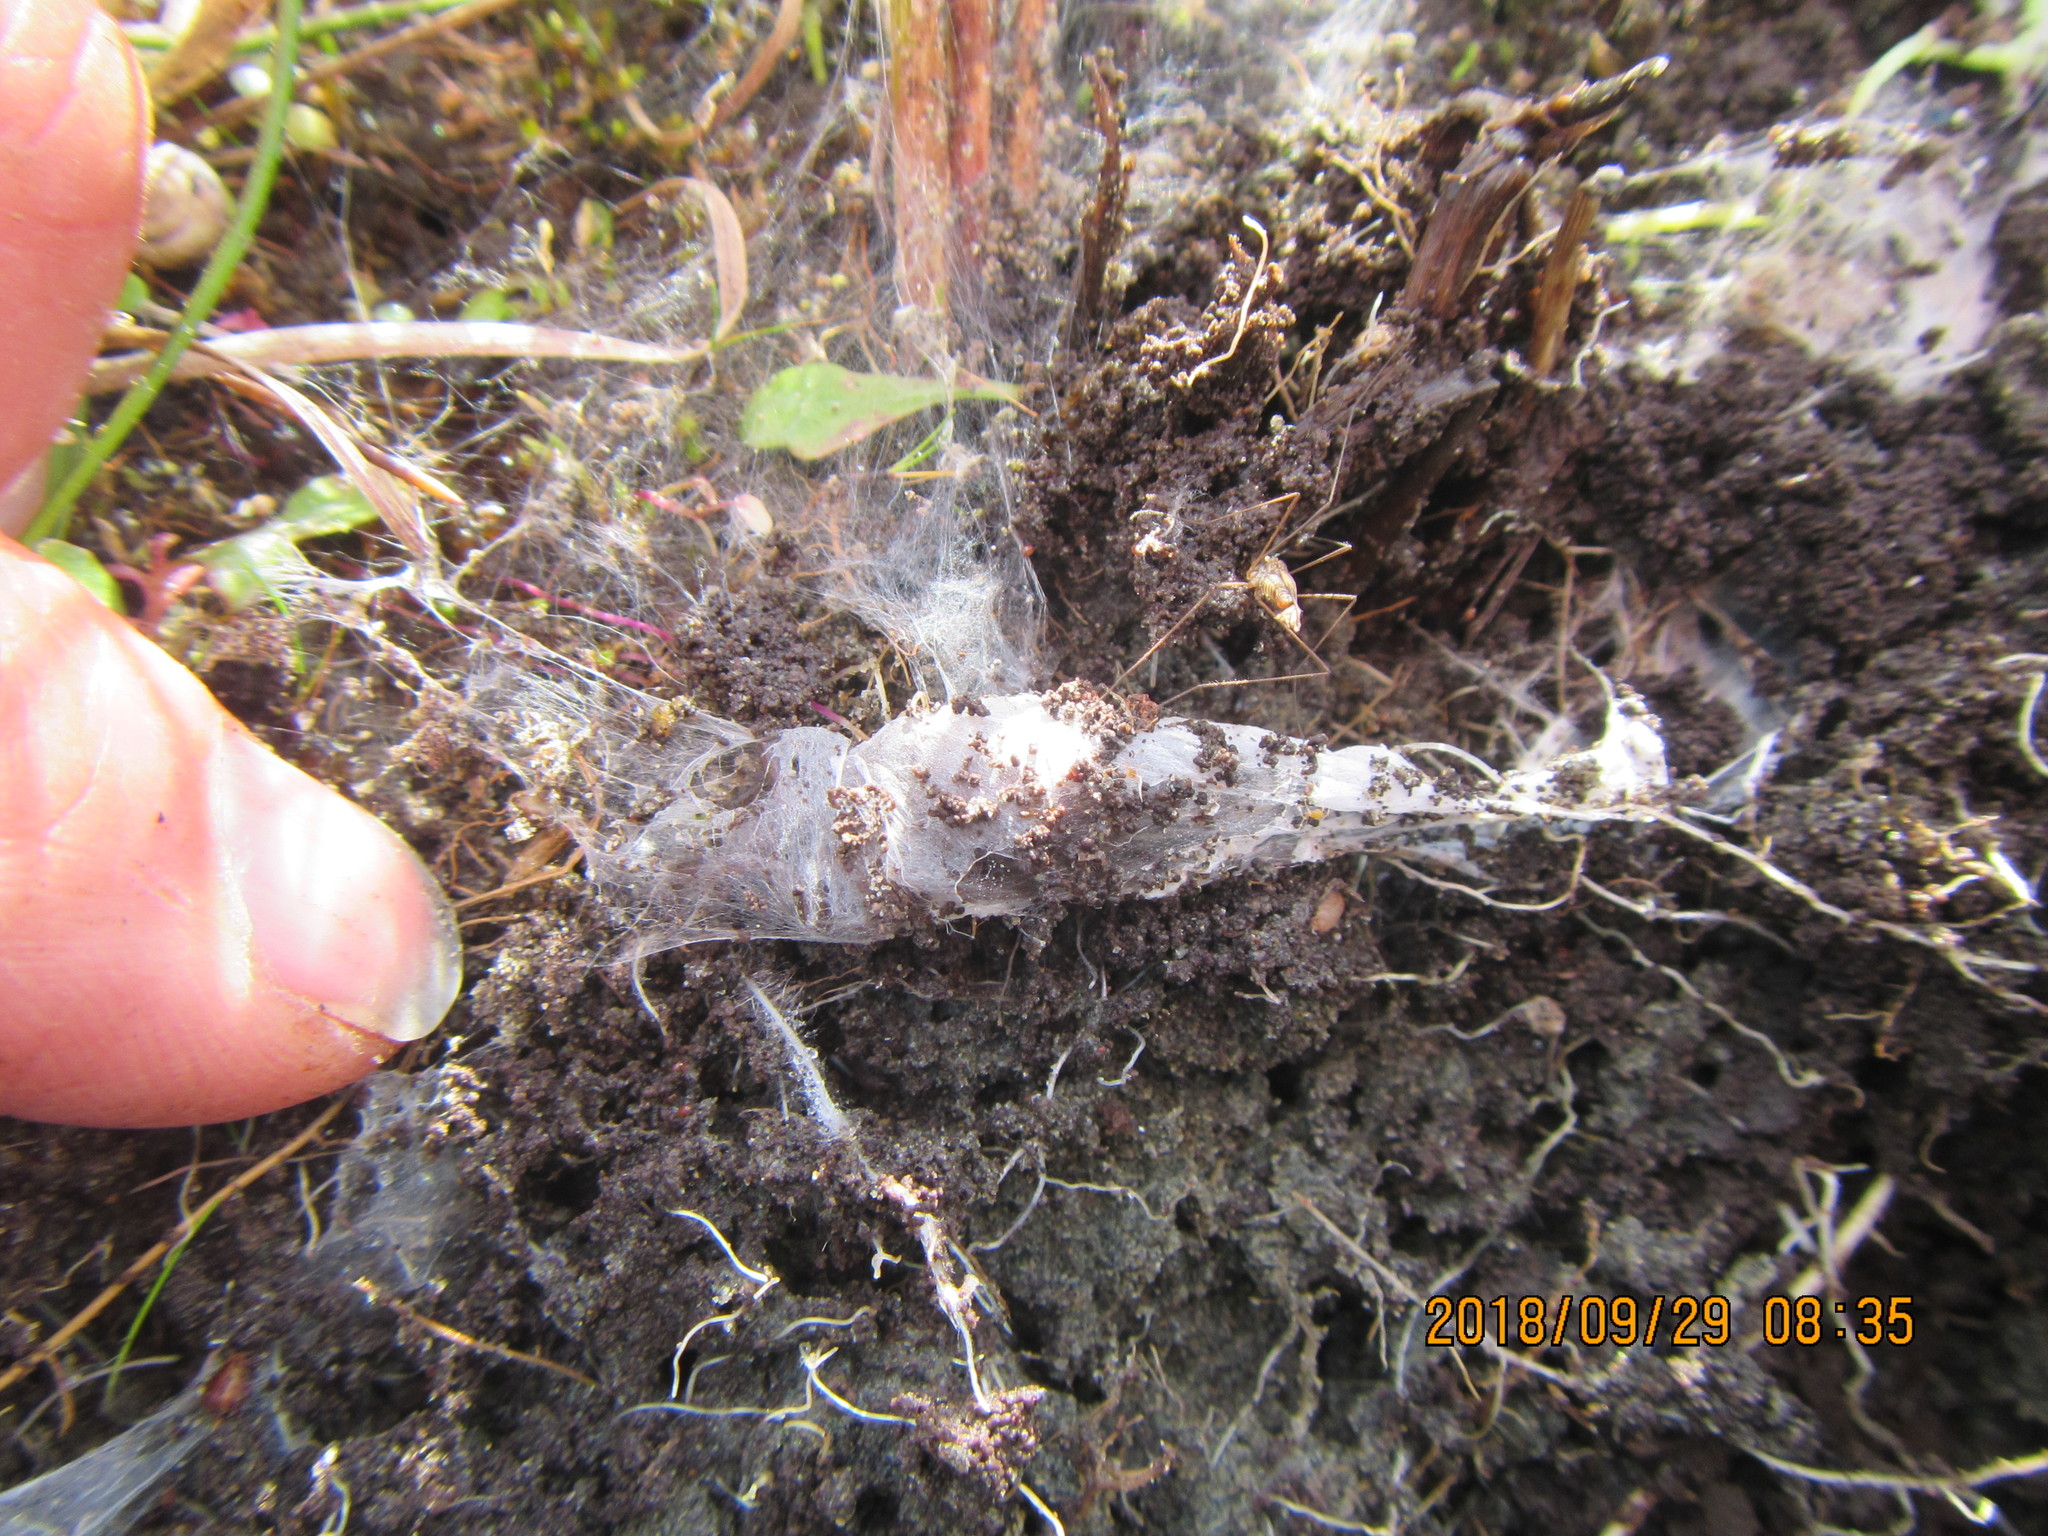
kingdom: Animalia
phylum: Arthropoda
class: Arachnida
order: Araneae
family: Porrhothelidae
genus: Porrhothele
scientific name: Porrhothele antipodiana
